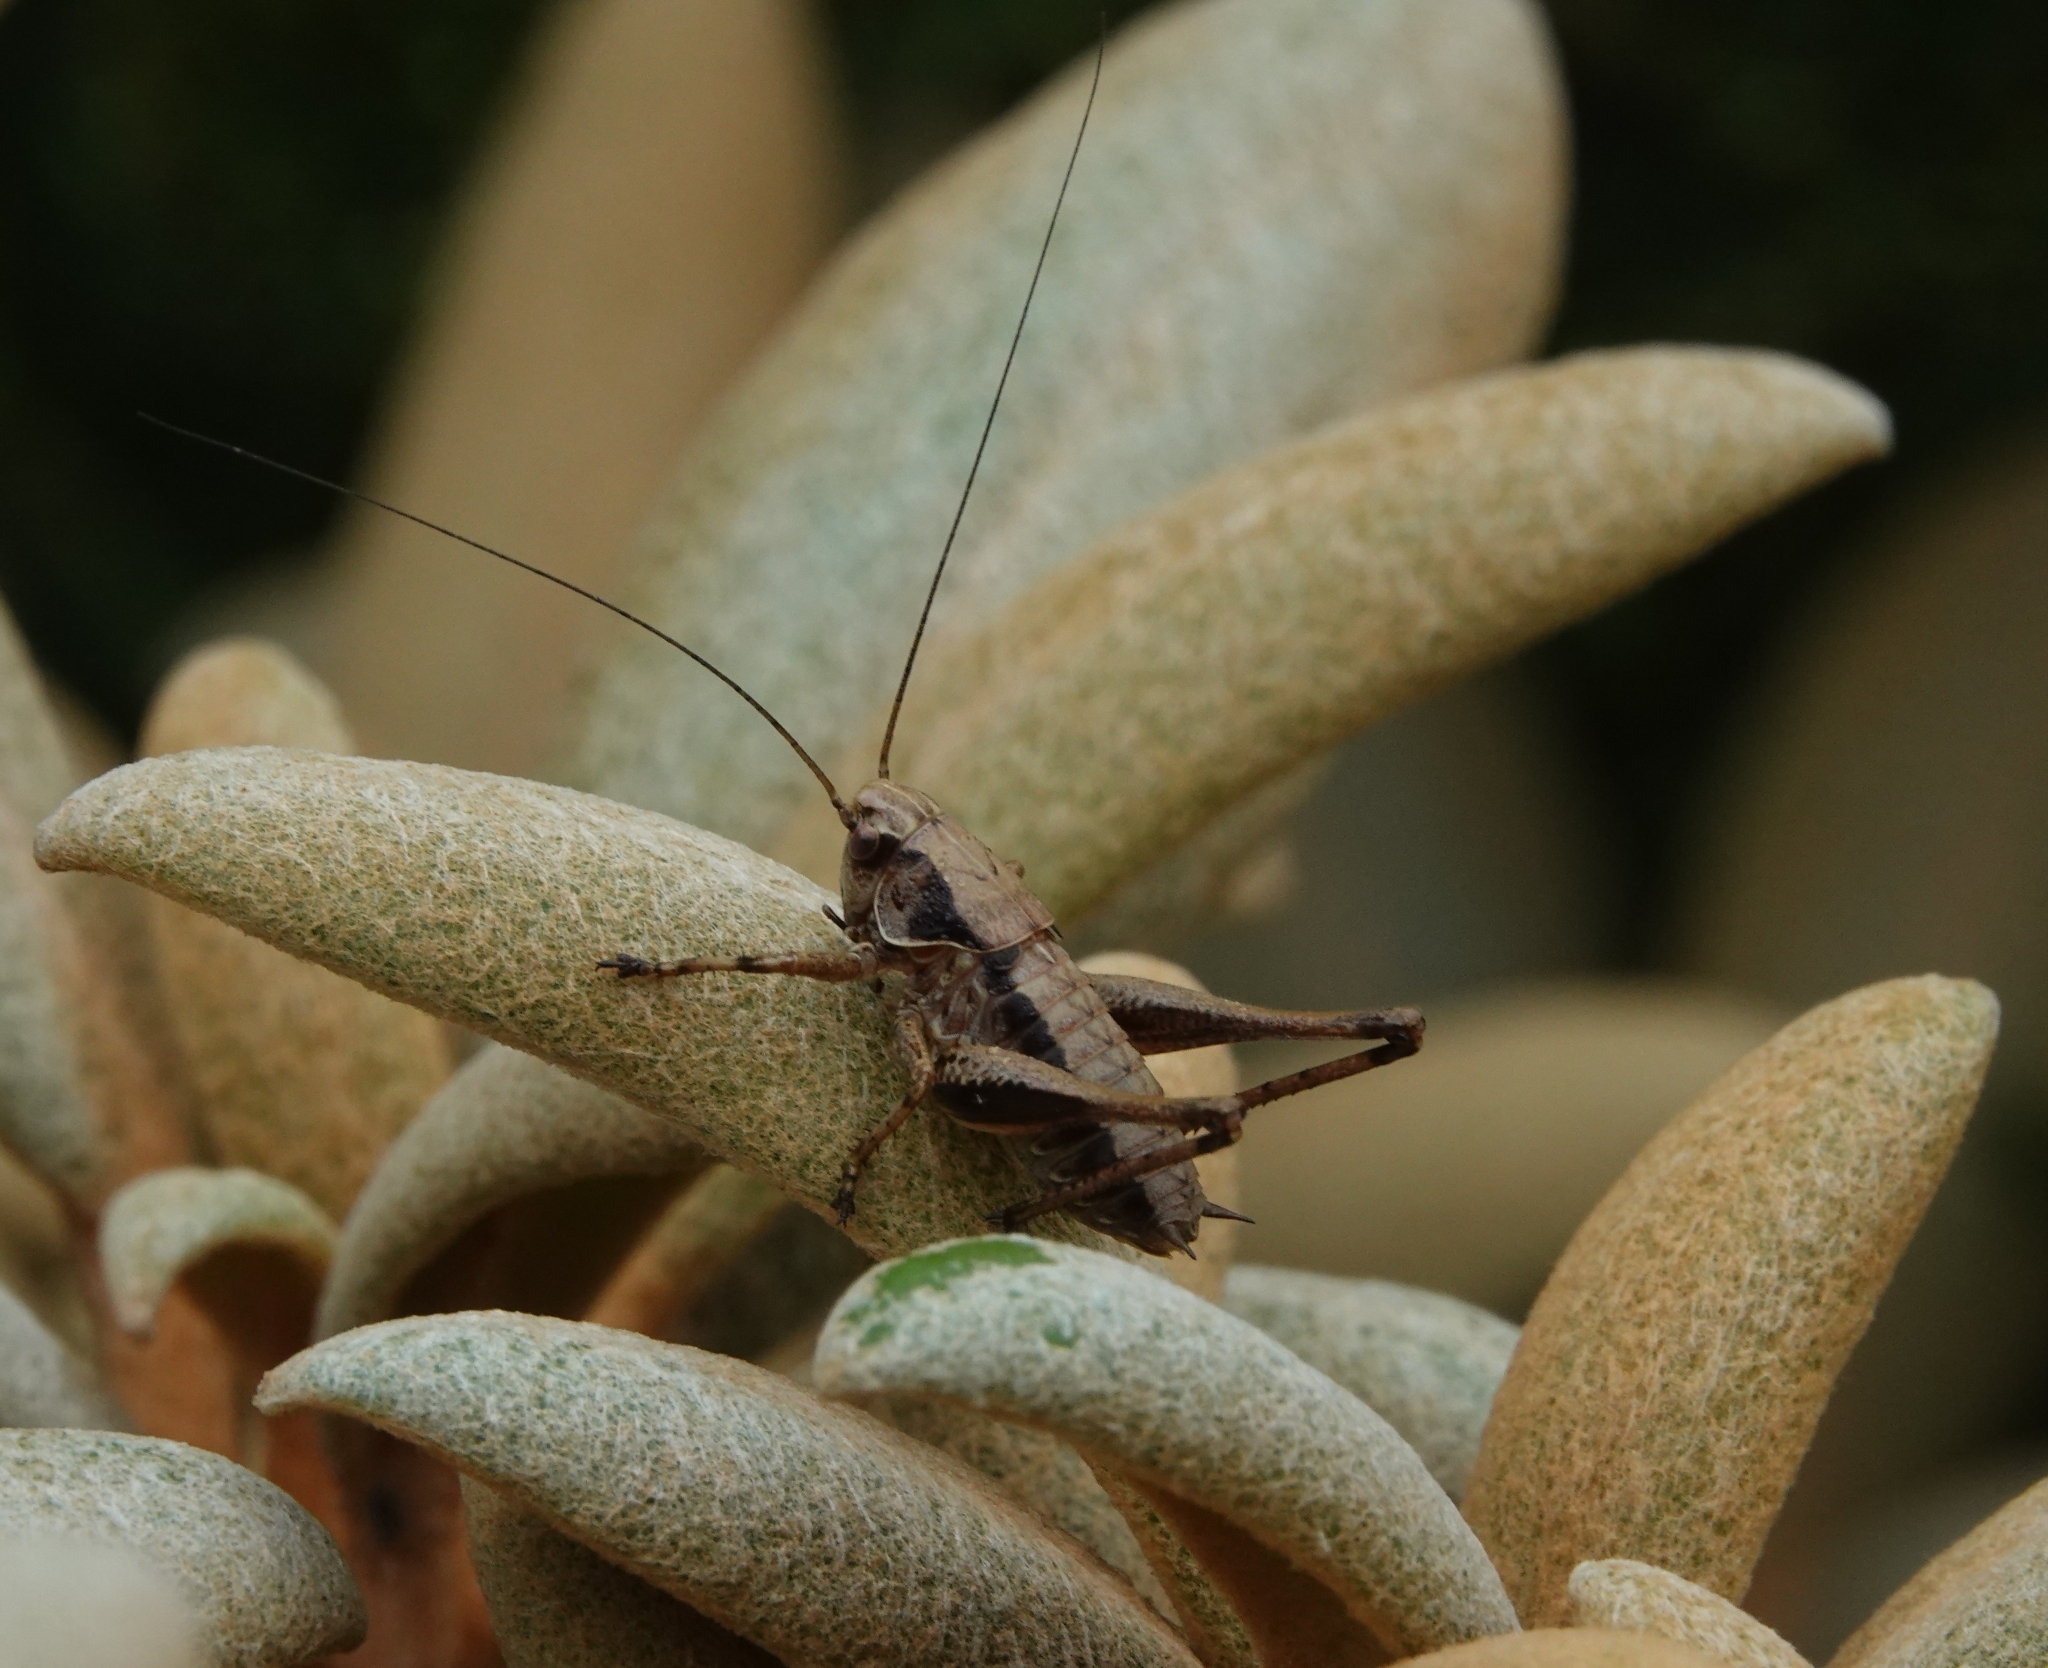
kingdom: Animalia
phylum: Arthropoda
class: Insecta
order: Orthoptera
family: Tettigoniidae
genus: Pholidoptera
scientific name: Pholidoptera griseoaptera
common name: Dark bush-cricket
